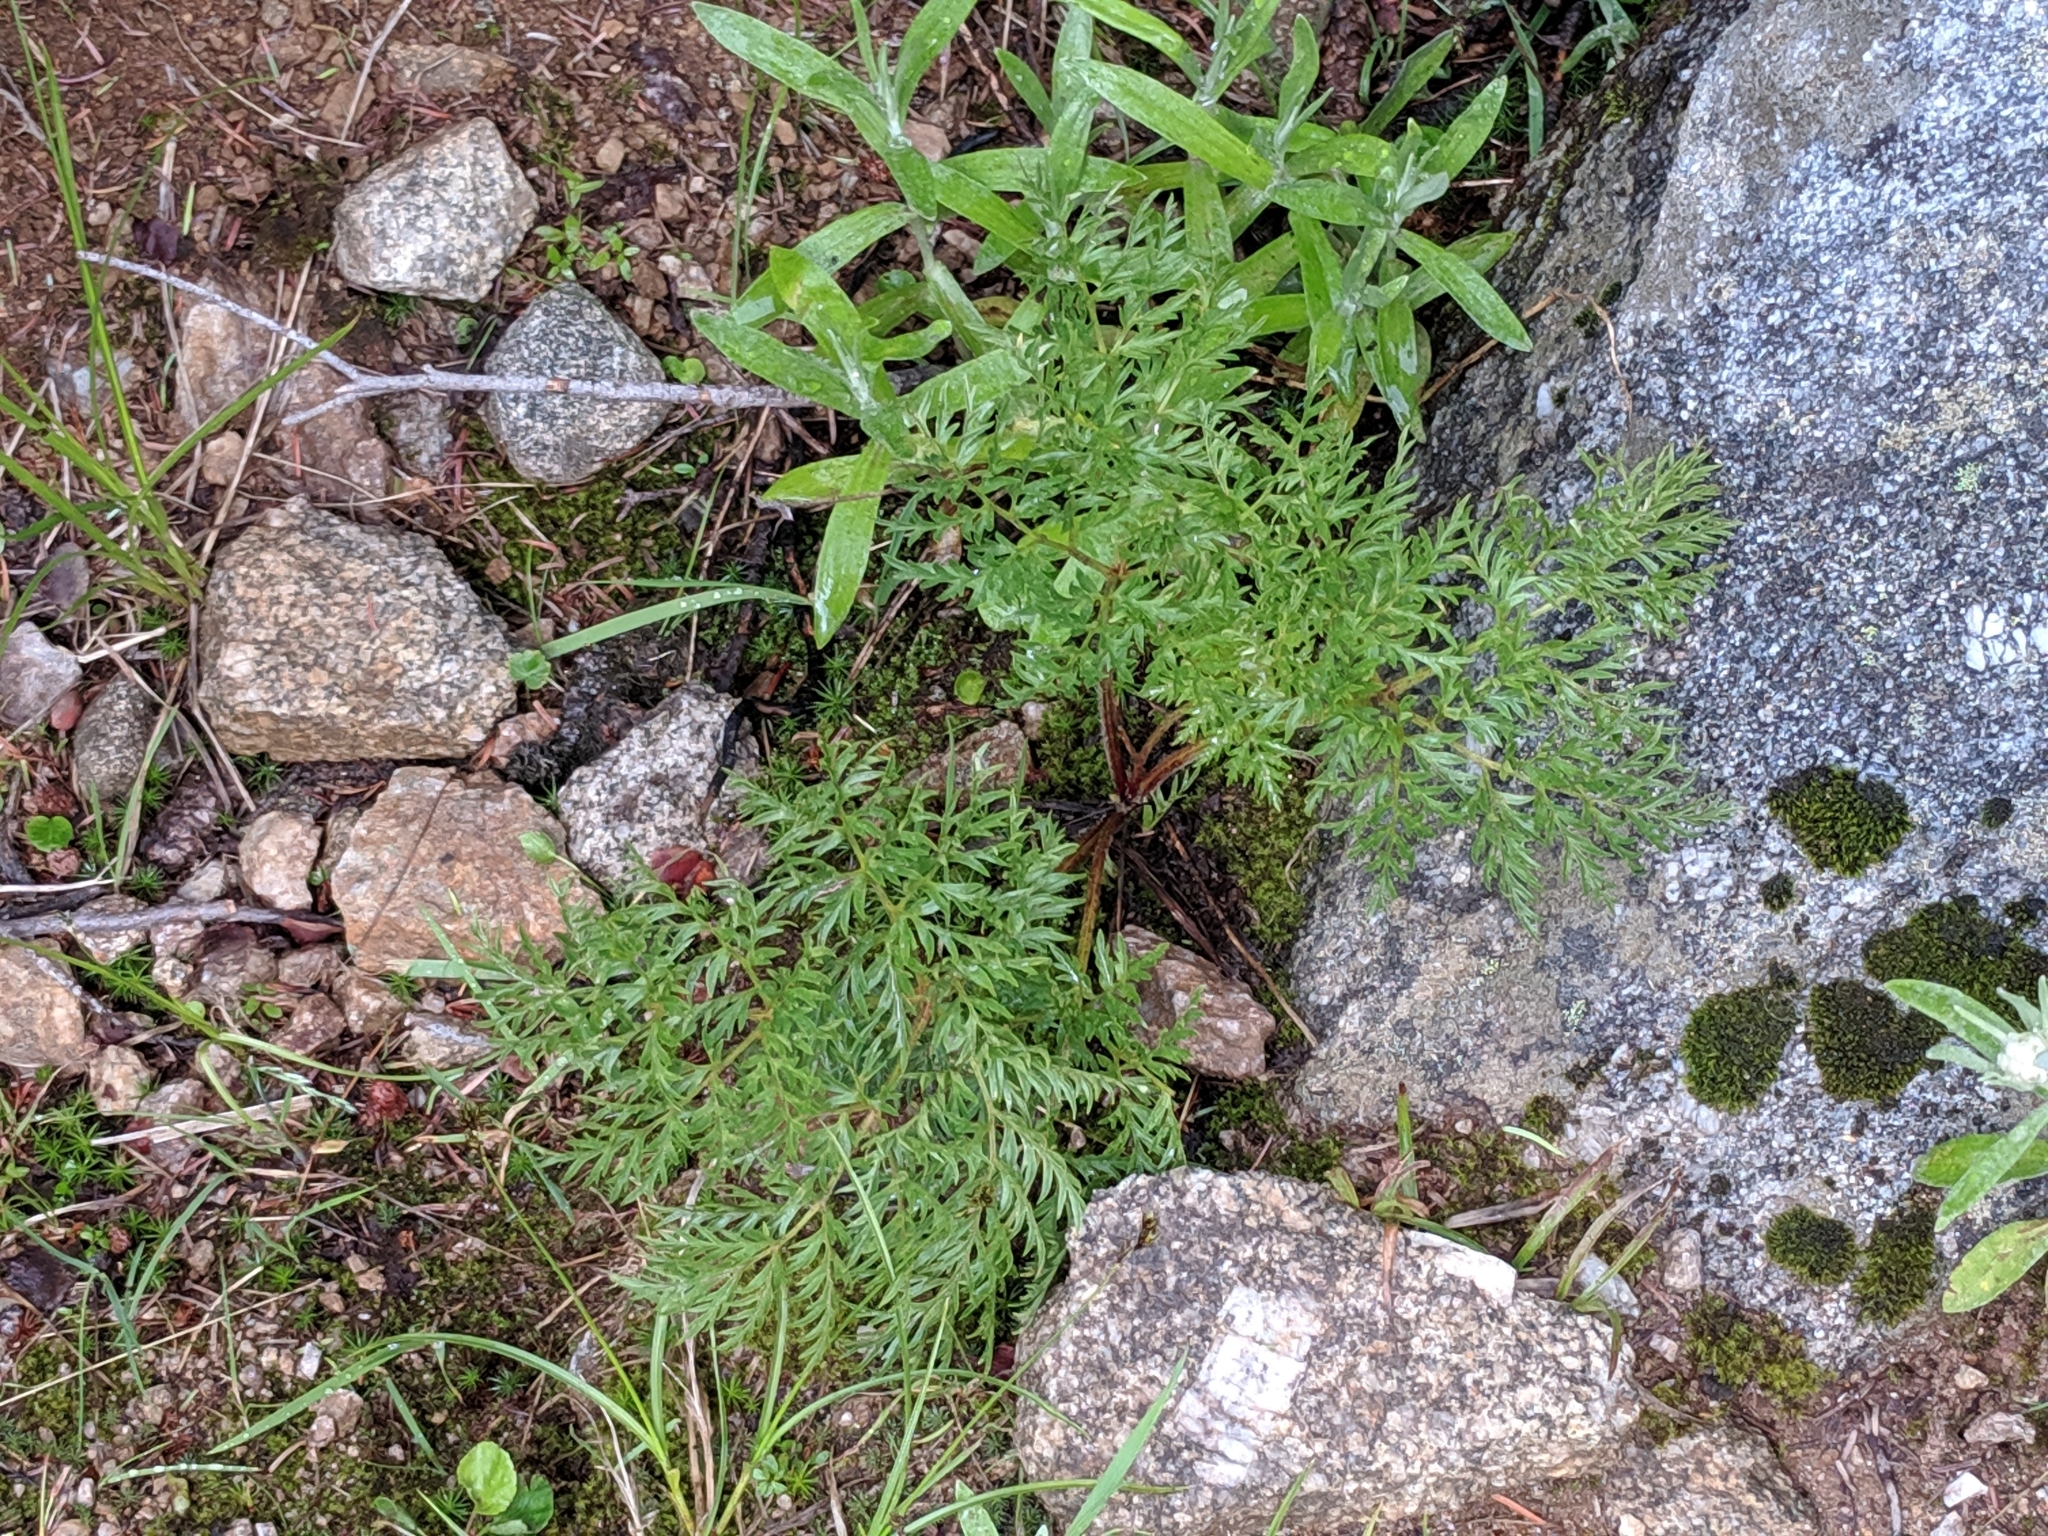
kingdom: Plantae
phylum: Tracheophyta
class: Magnoliopsida
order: Ranunculales
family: Ranunculaceae
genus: Pulsatilla
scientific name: Pulsatilla occidentalis
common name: Mountain pasqueflower
